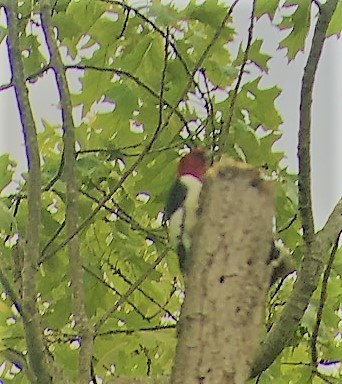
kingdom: Animalia
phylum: Chordata
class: Aves
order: Piciformes
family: Picidae
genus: Melanerpes
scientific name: Melanerpes erythrocephalus
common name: Red-headed woodpecker
